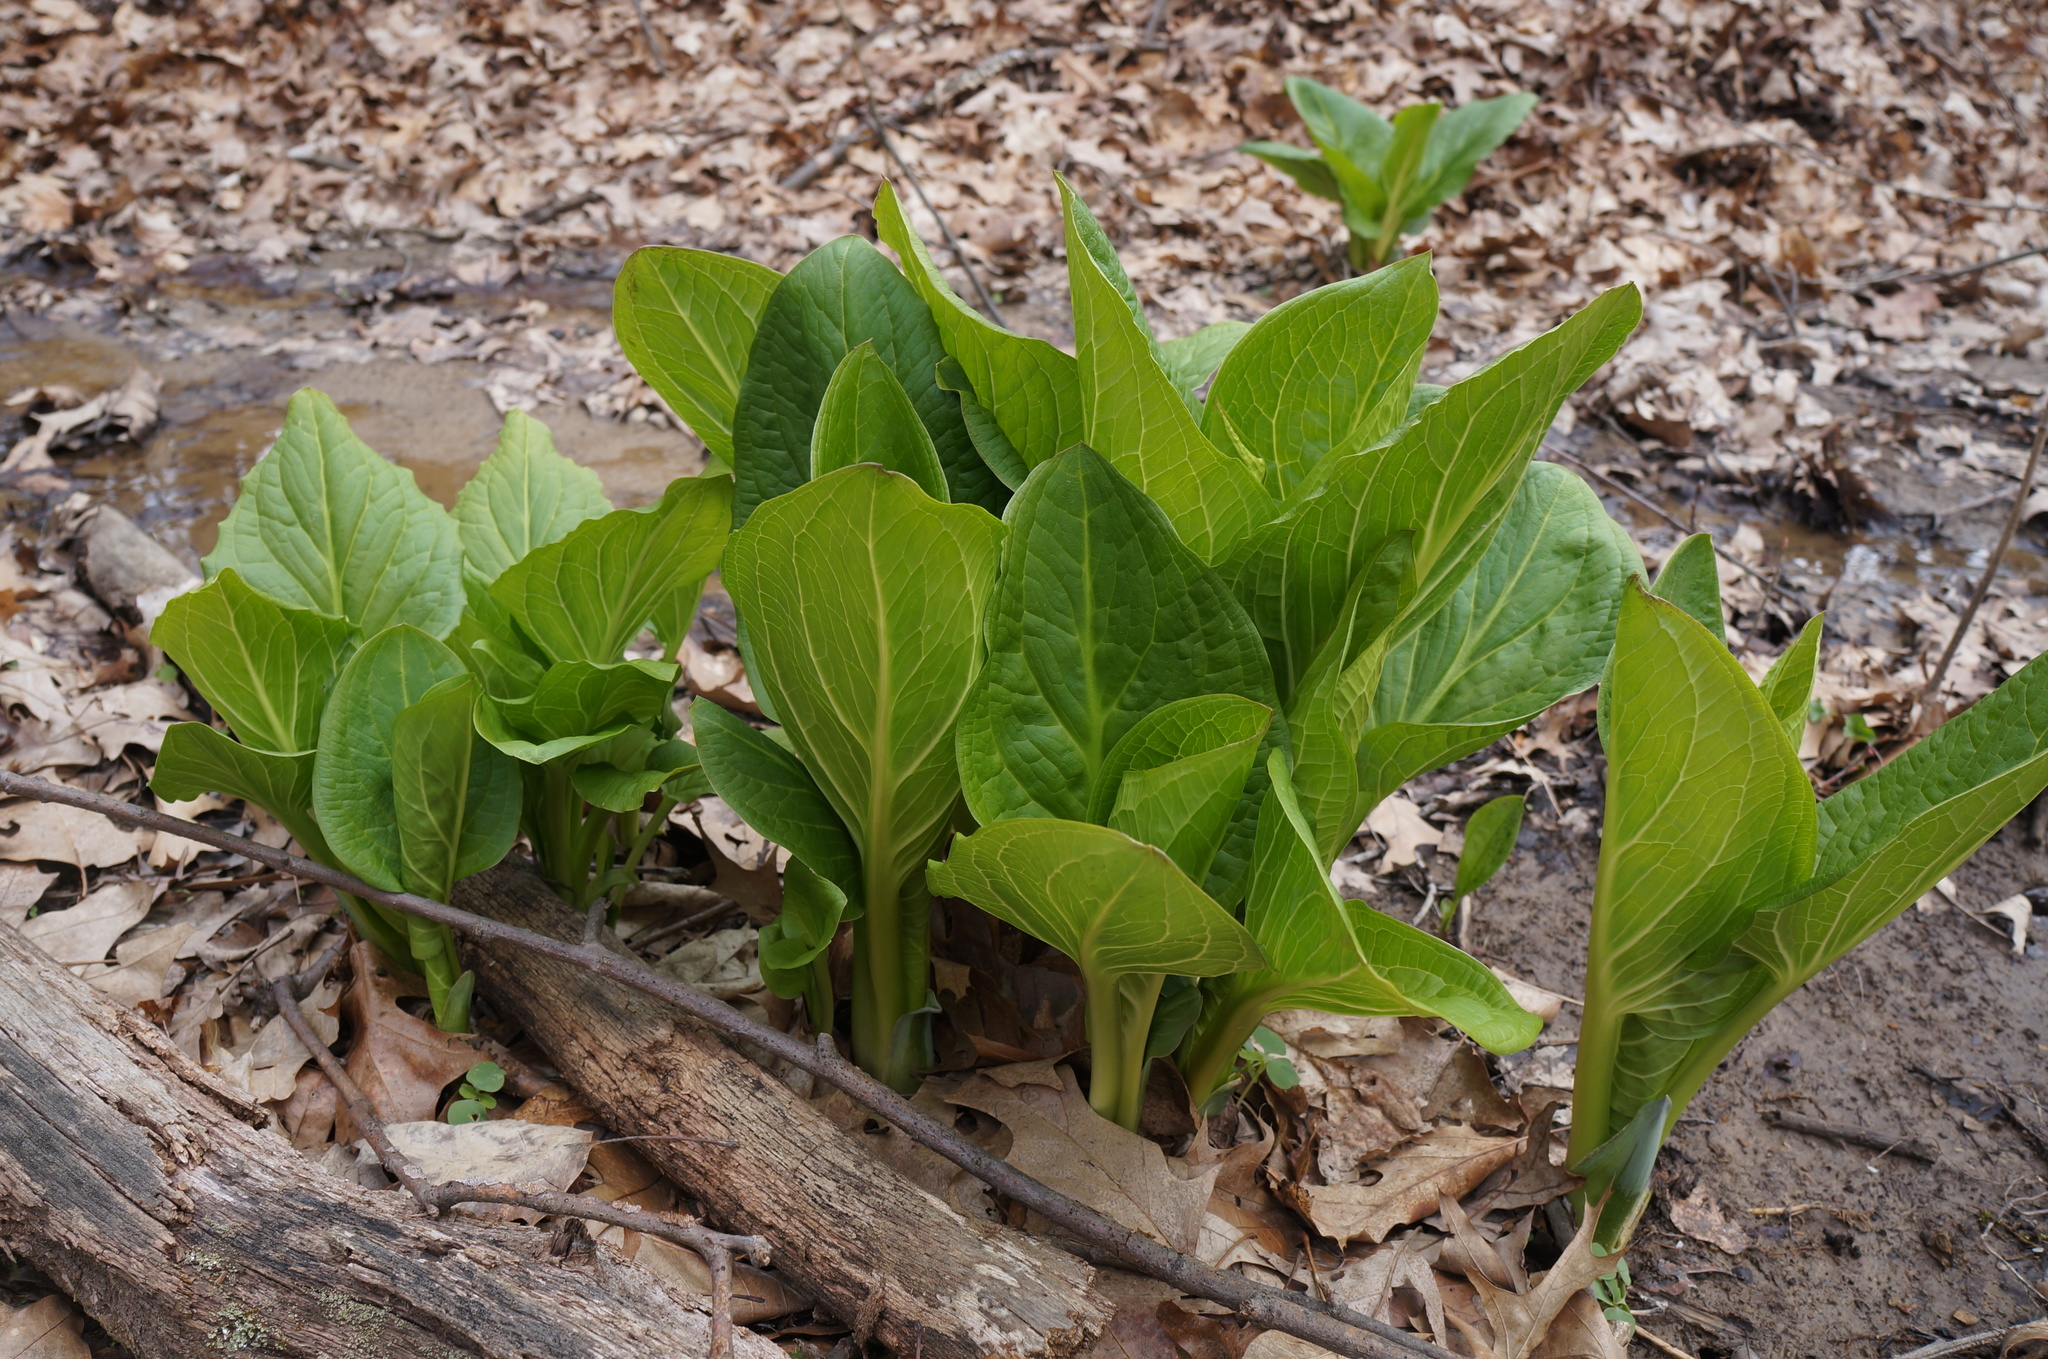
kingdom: Plantae
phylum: Tracheophyta
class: Liliopsida
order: Alismatales
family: Araceae
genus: Symplocarpus
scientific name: Symplocarpus foetidus
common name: Eastern skunk cabbage
